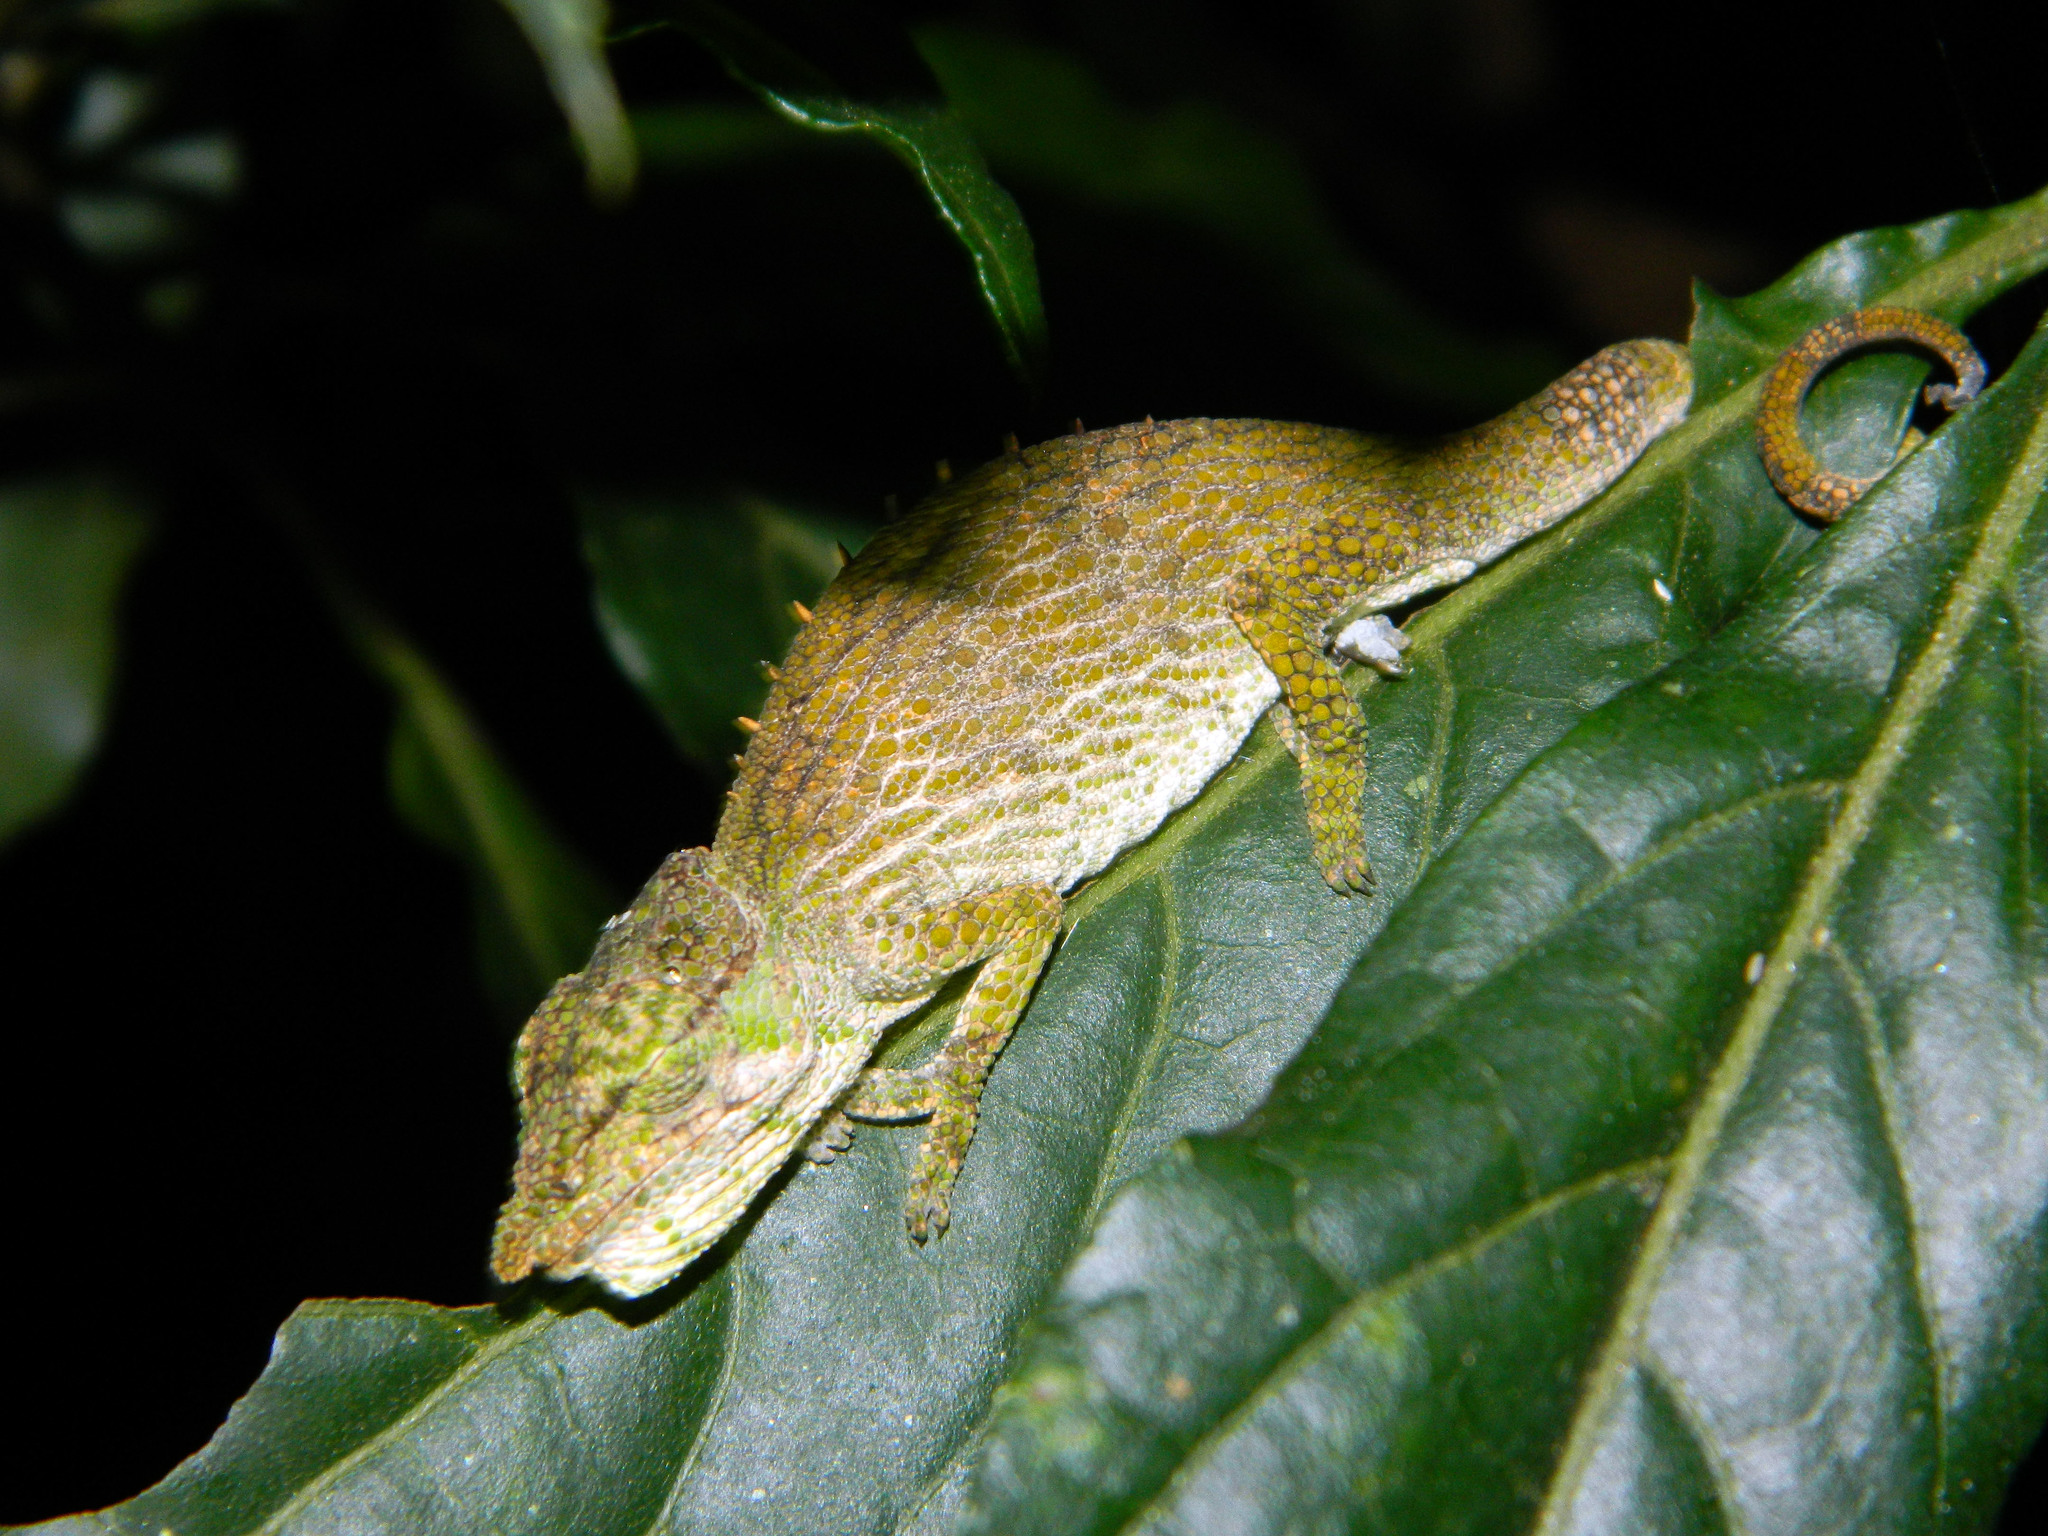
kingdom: Animalia
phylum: Chordata
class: Squamata
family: Chamaeleonidae
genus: Calumma
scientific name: Calumma tjiasmantoi
